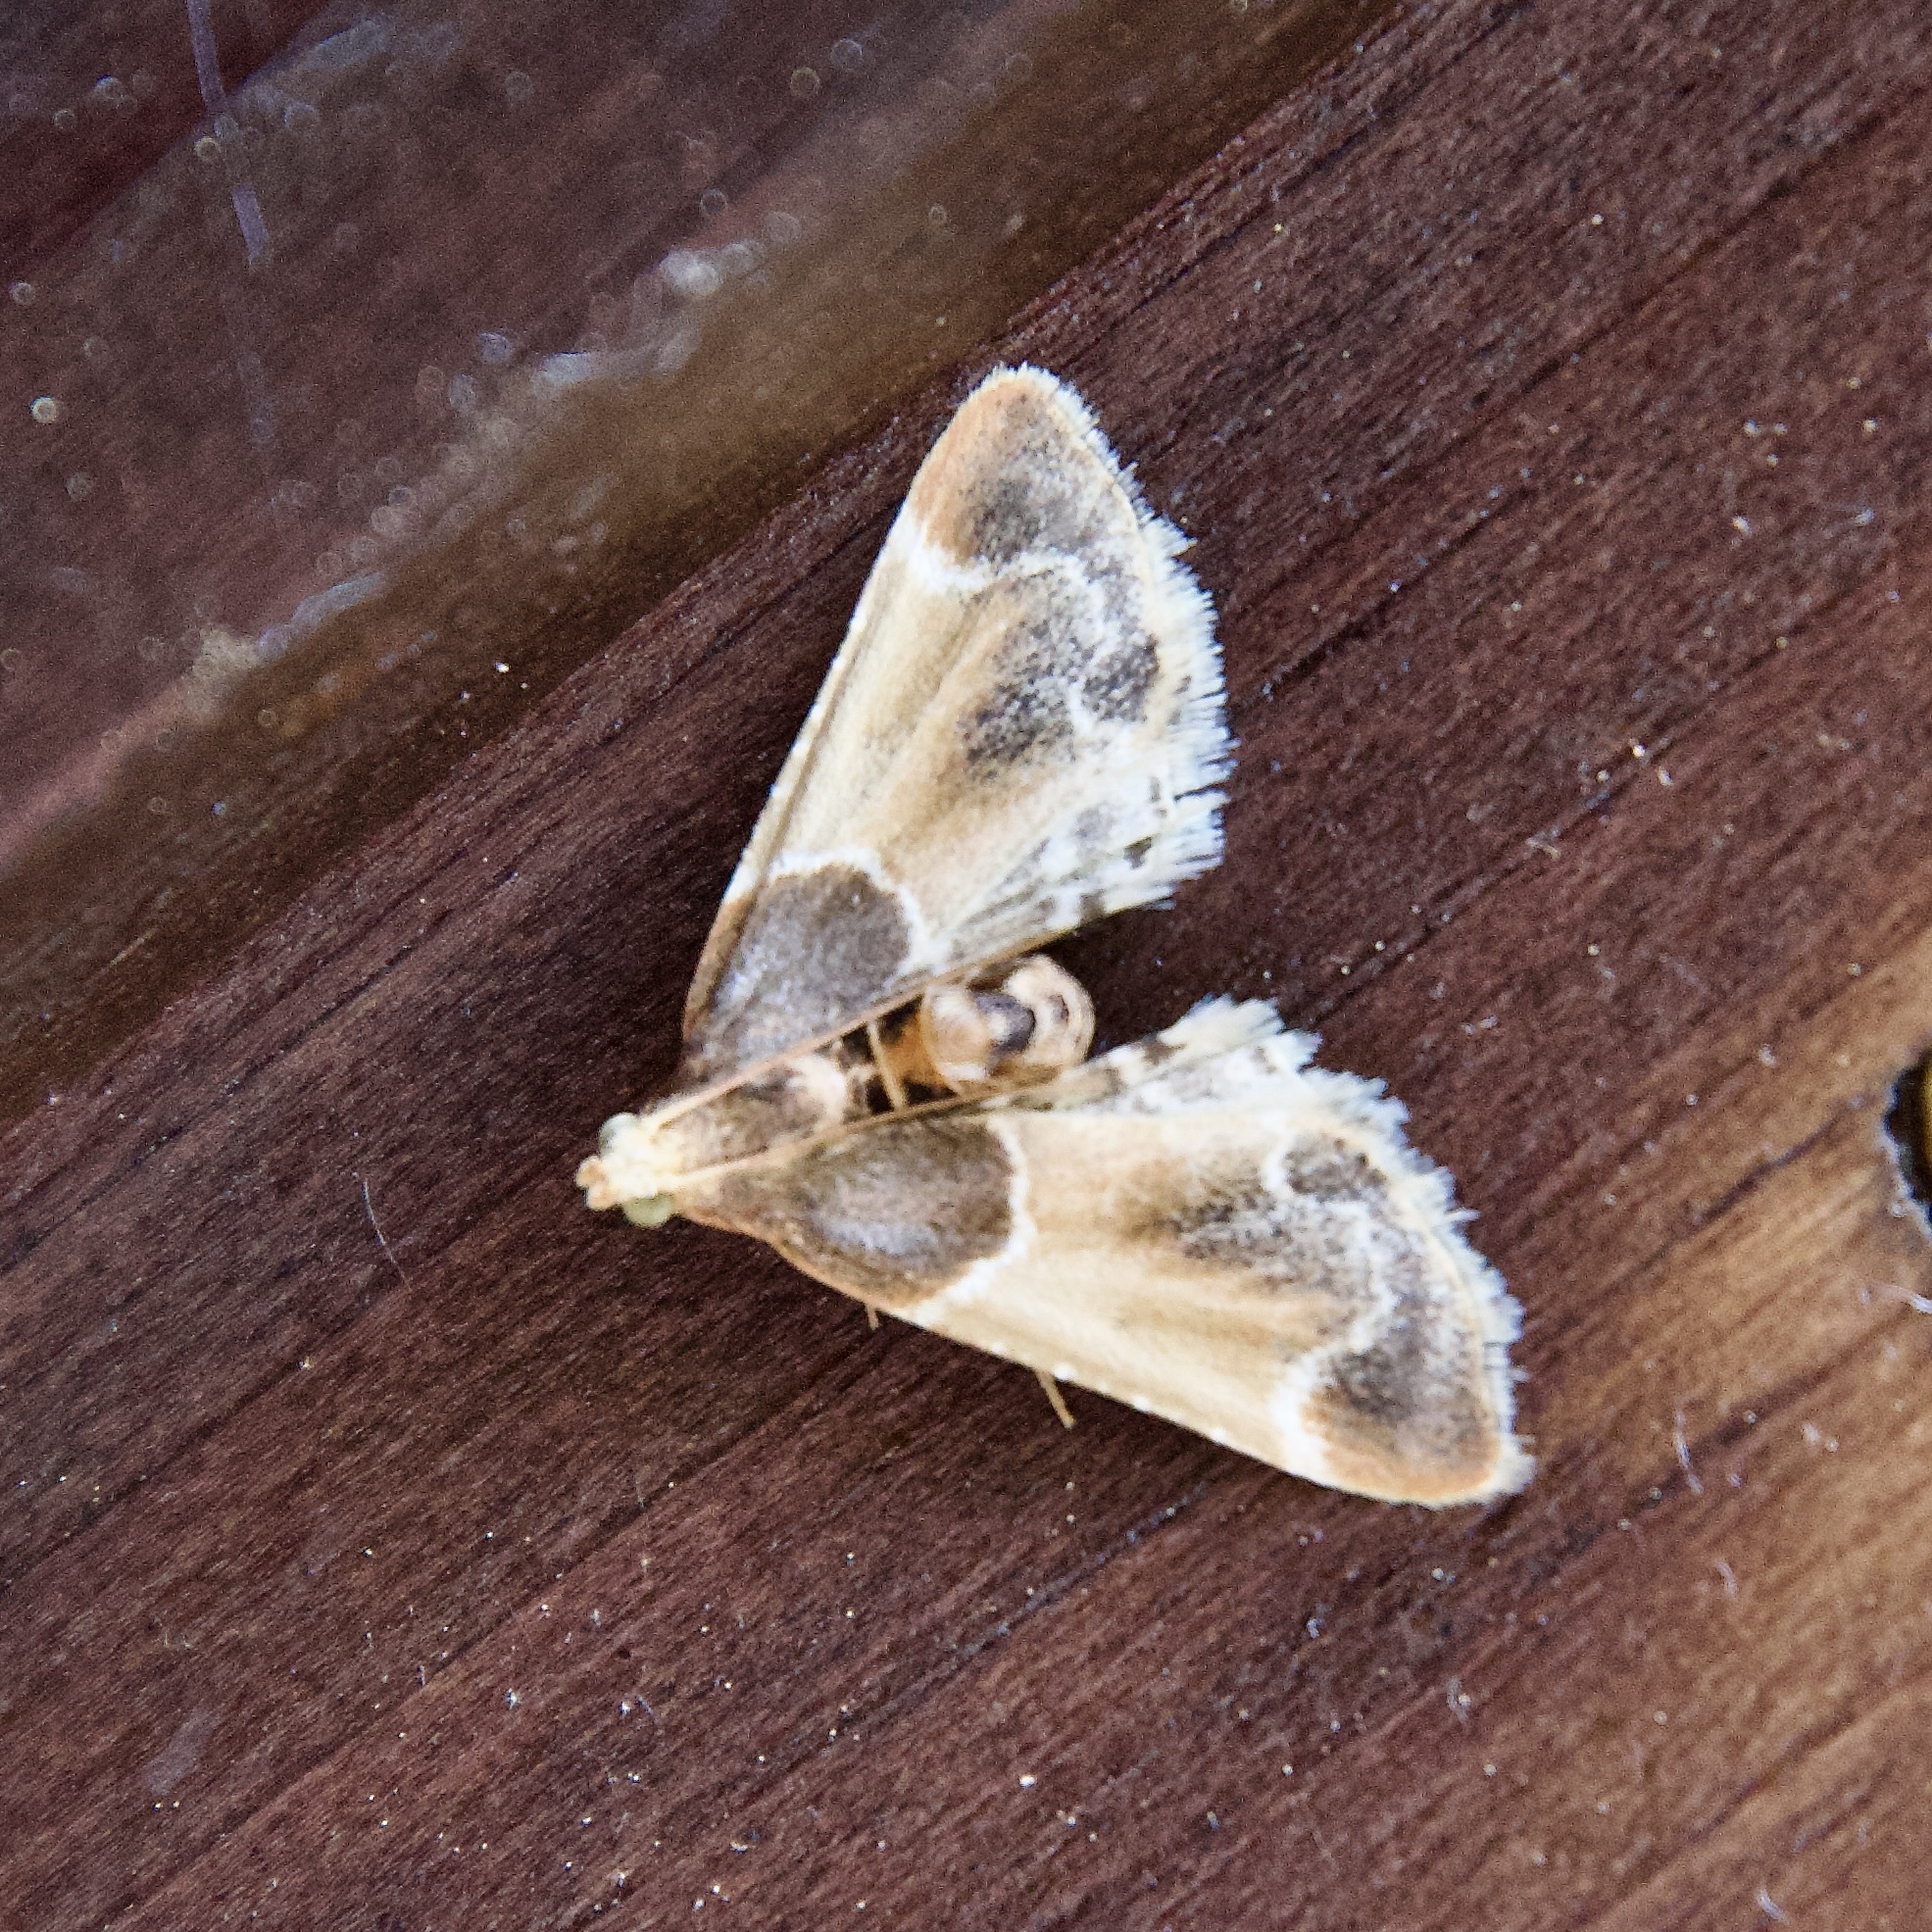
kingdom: Animalia
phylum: Arthropoda
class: Insecta
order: Lepidoptera
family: Pyralidae
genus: Pyralis
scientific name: Pyralis farinalis
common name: Meal moth
